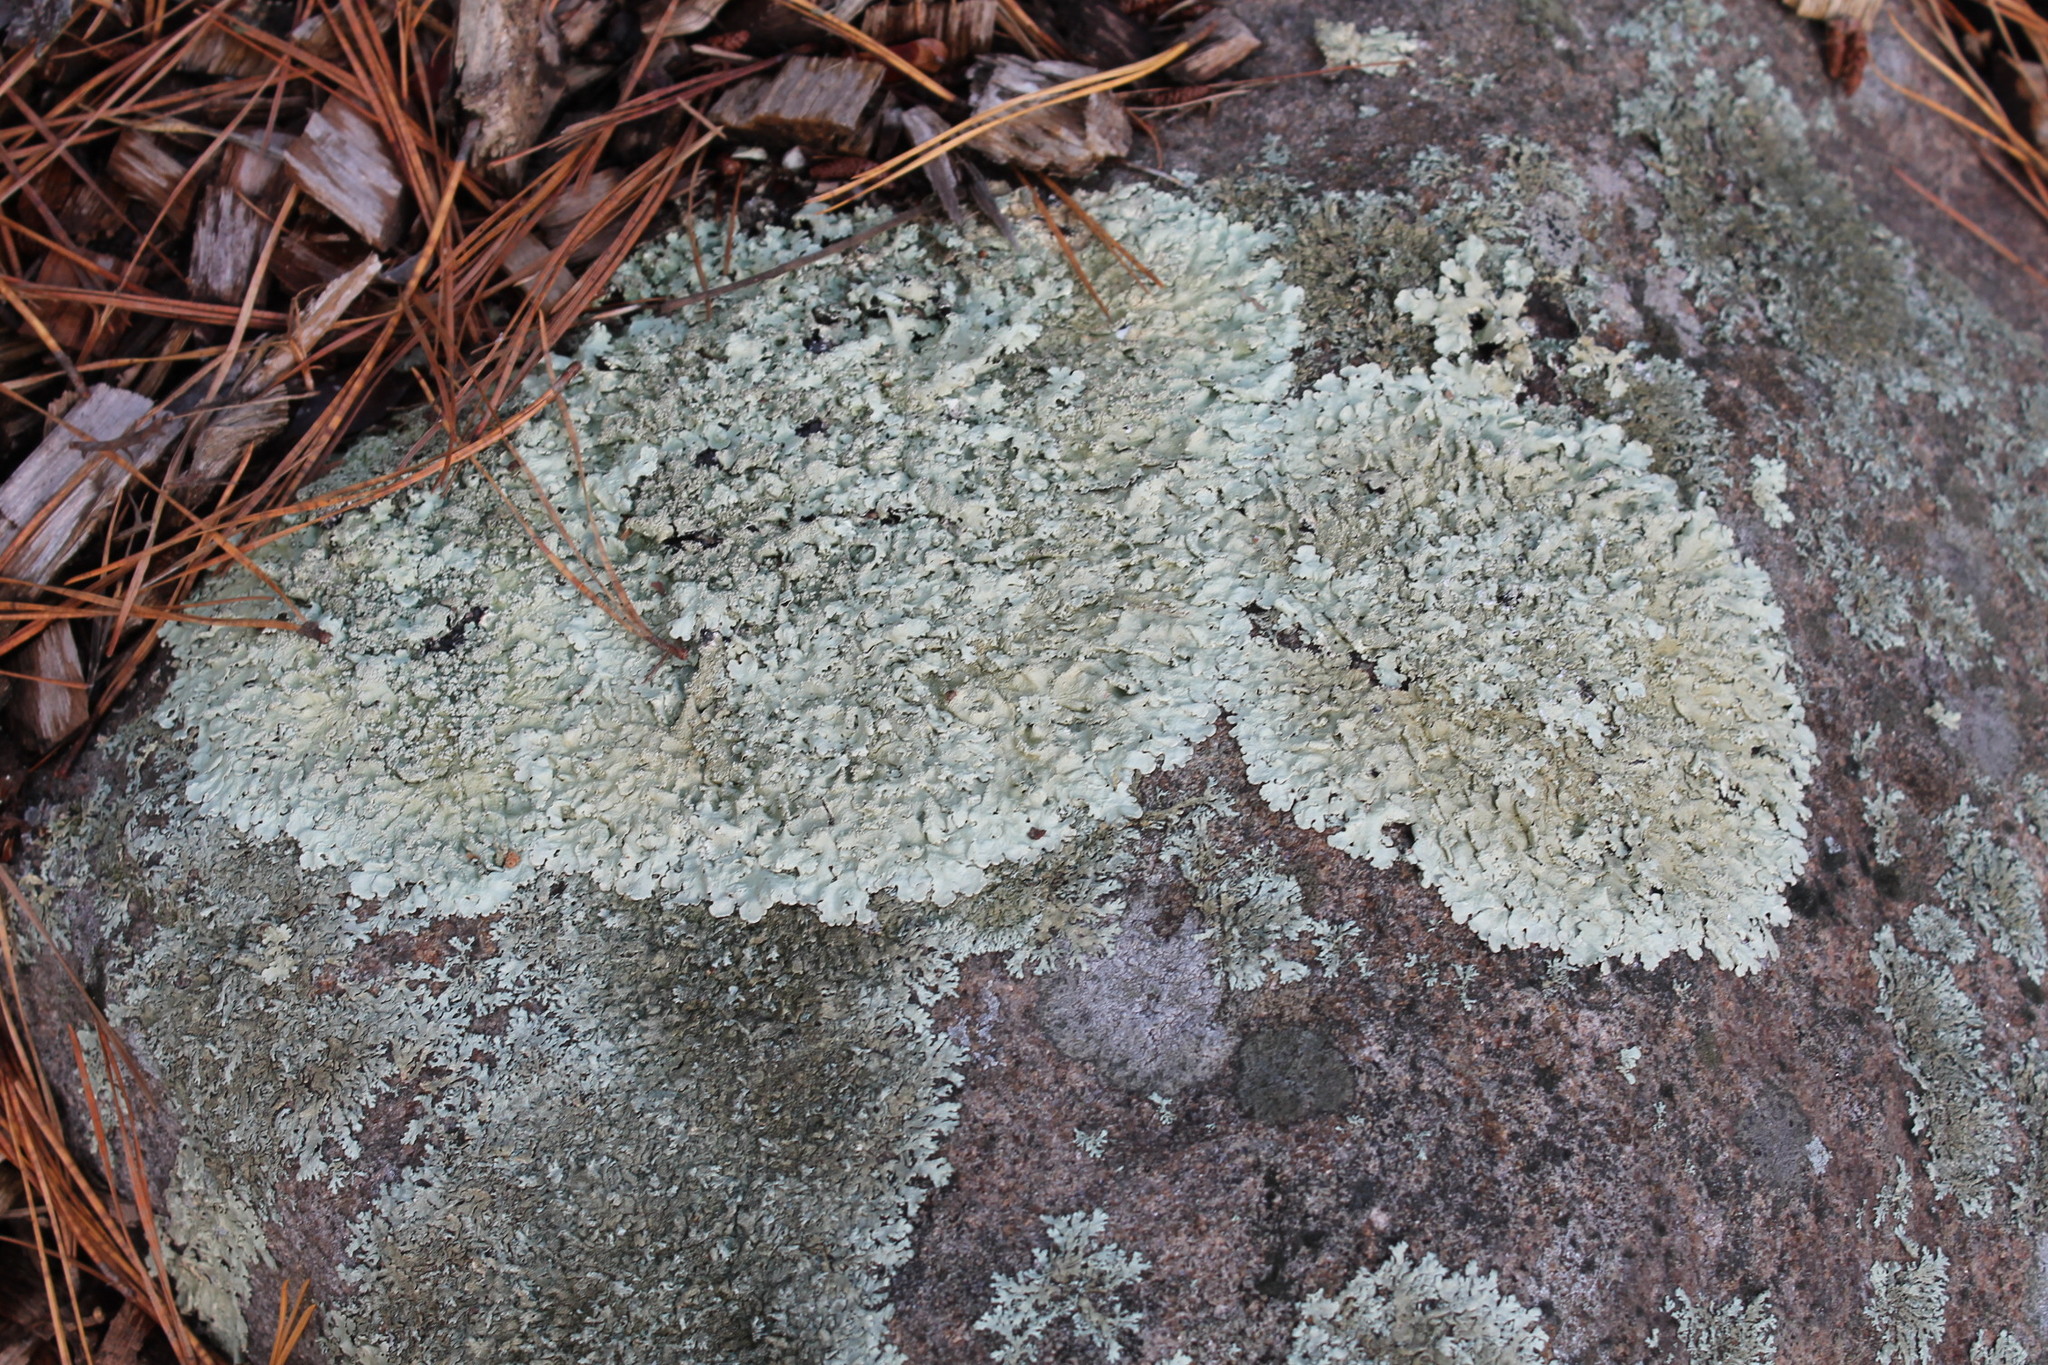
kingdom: Fungi
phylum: Ascomycota
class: Lecanoromycetes
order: Lecanorales
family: Parmeliaceae
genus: Flavoparmelia
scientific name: Flavoparmelia baltimorensis
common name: Rock greenshield
